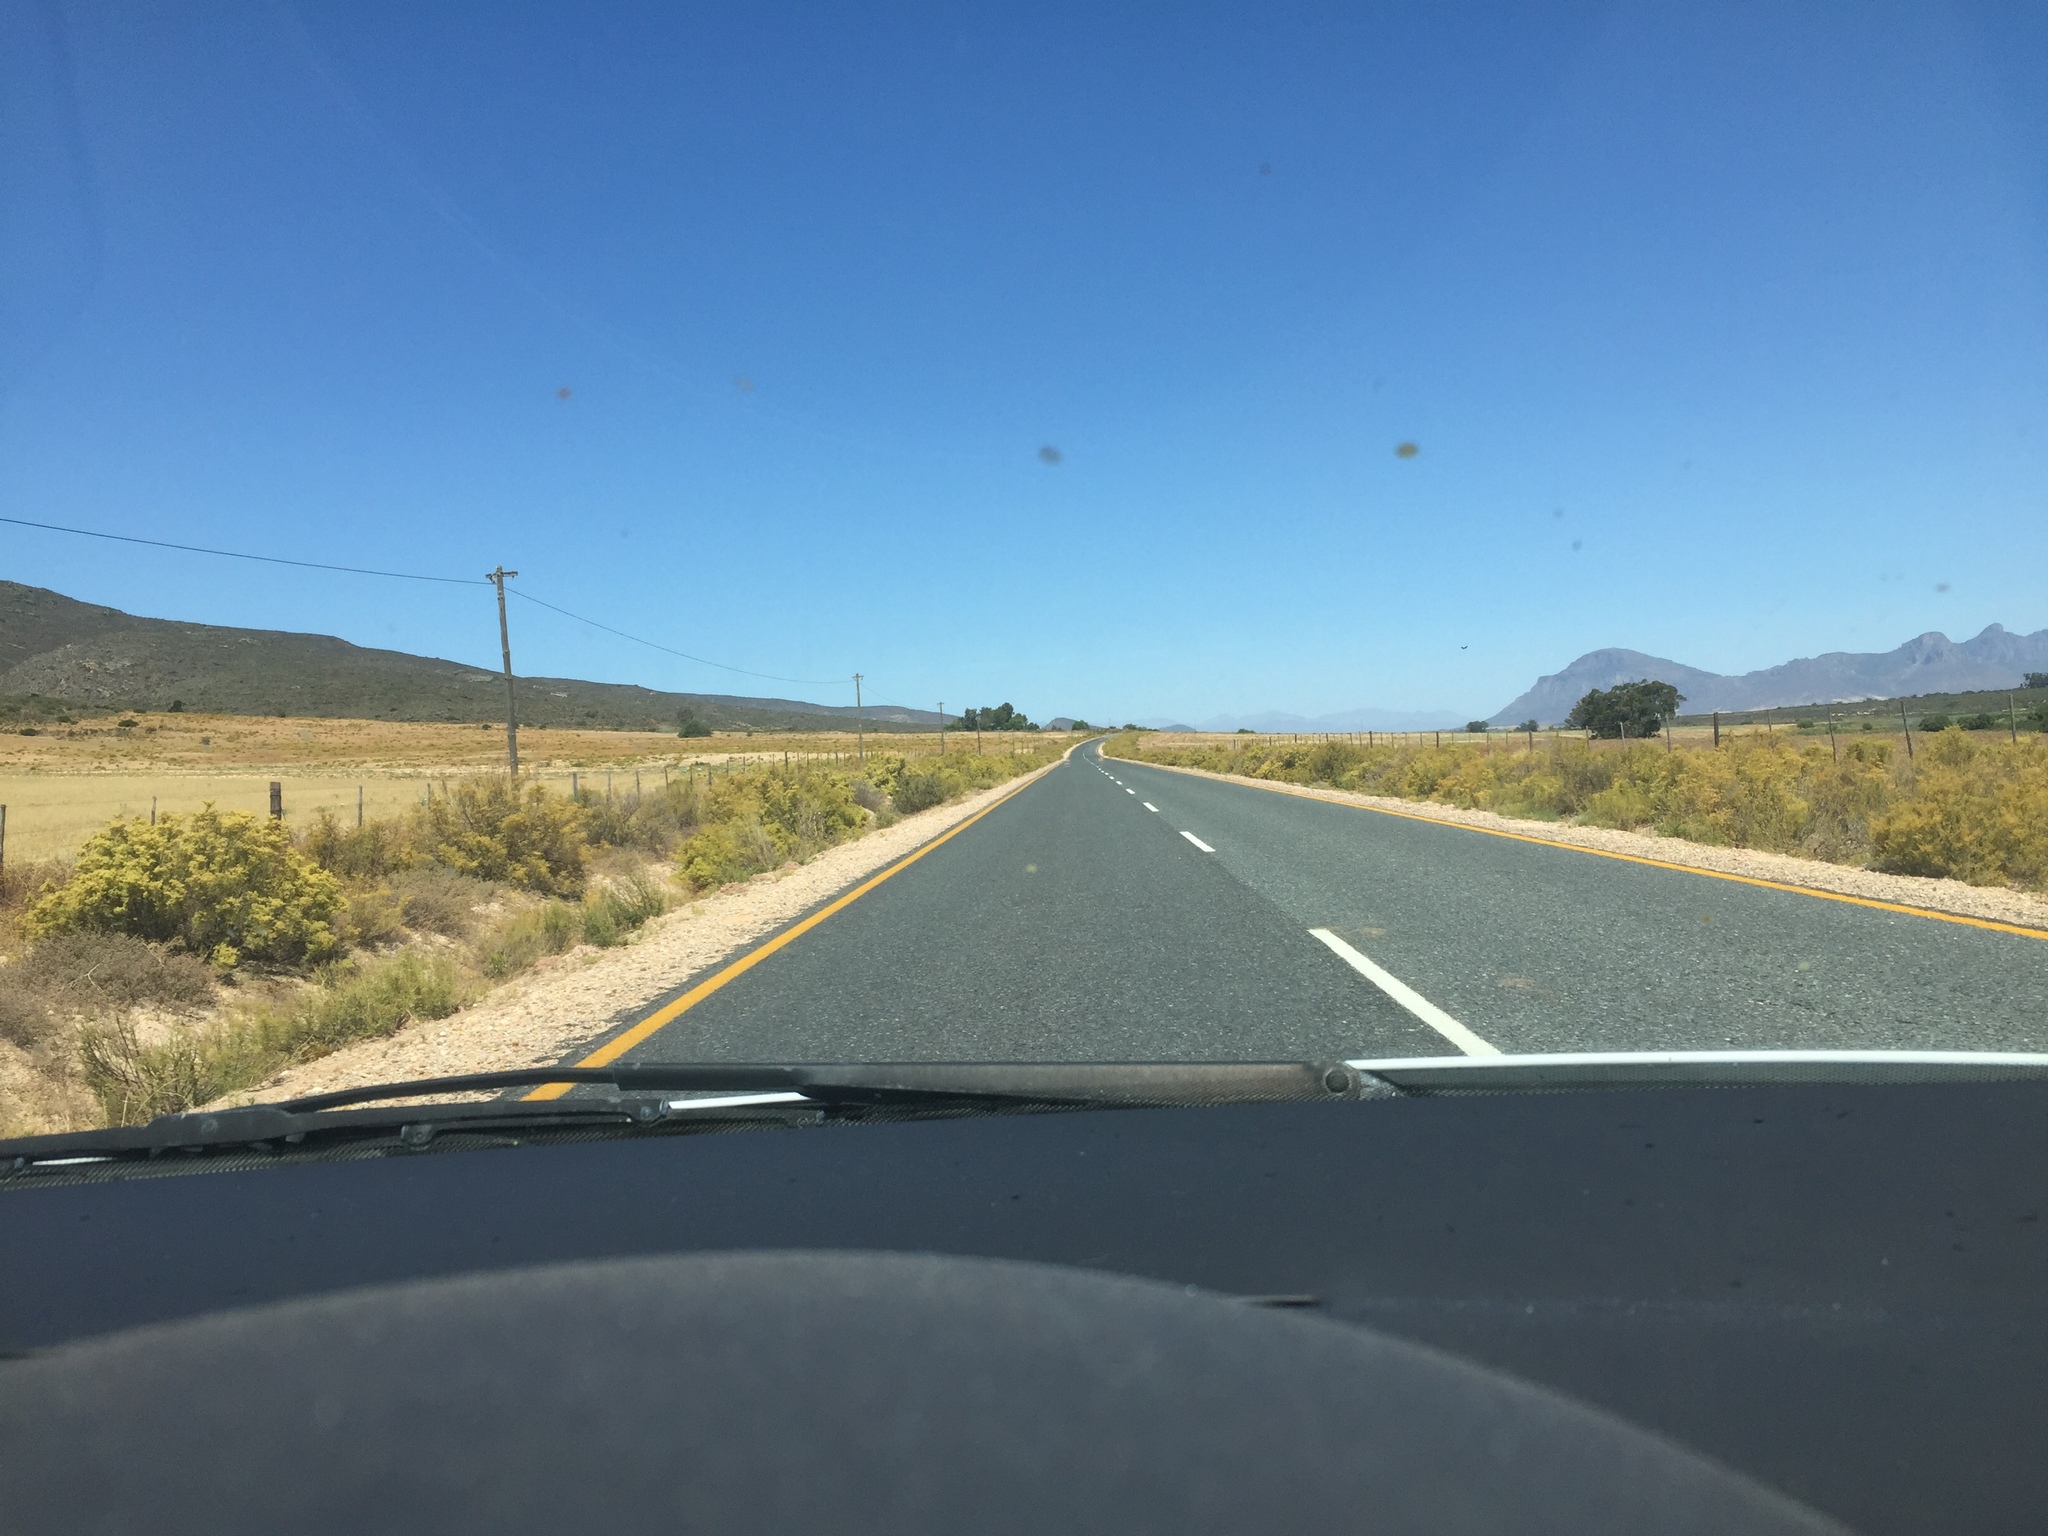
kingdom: Plantae
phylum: Tracheophyta
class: Magnoliopsida
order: Caryophyllales
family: Aizoaceae
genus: Aizoon
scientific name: Aizoon africanum
